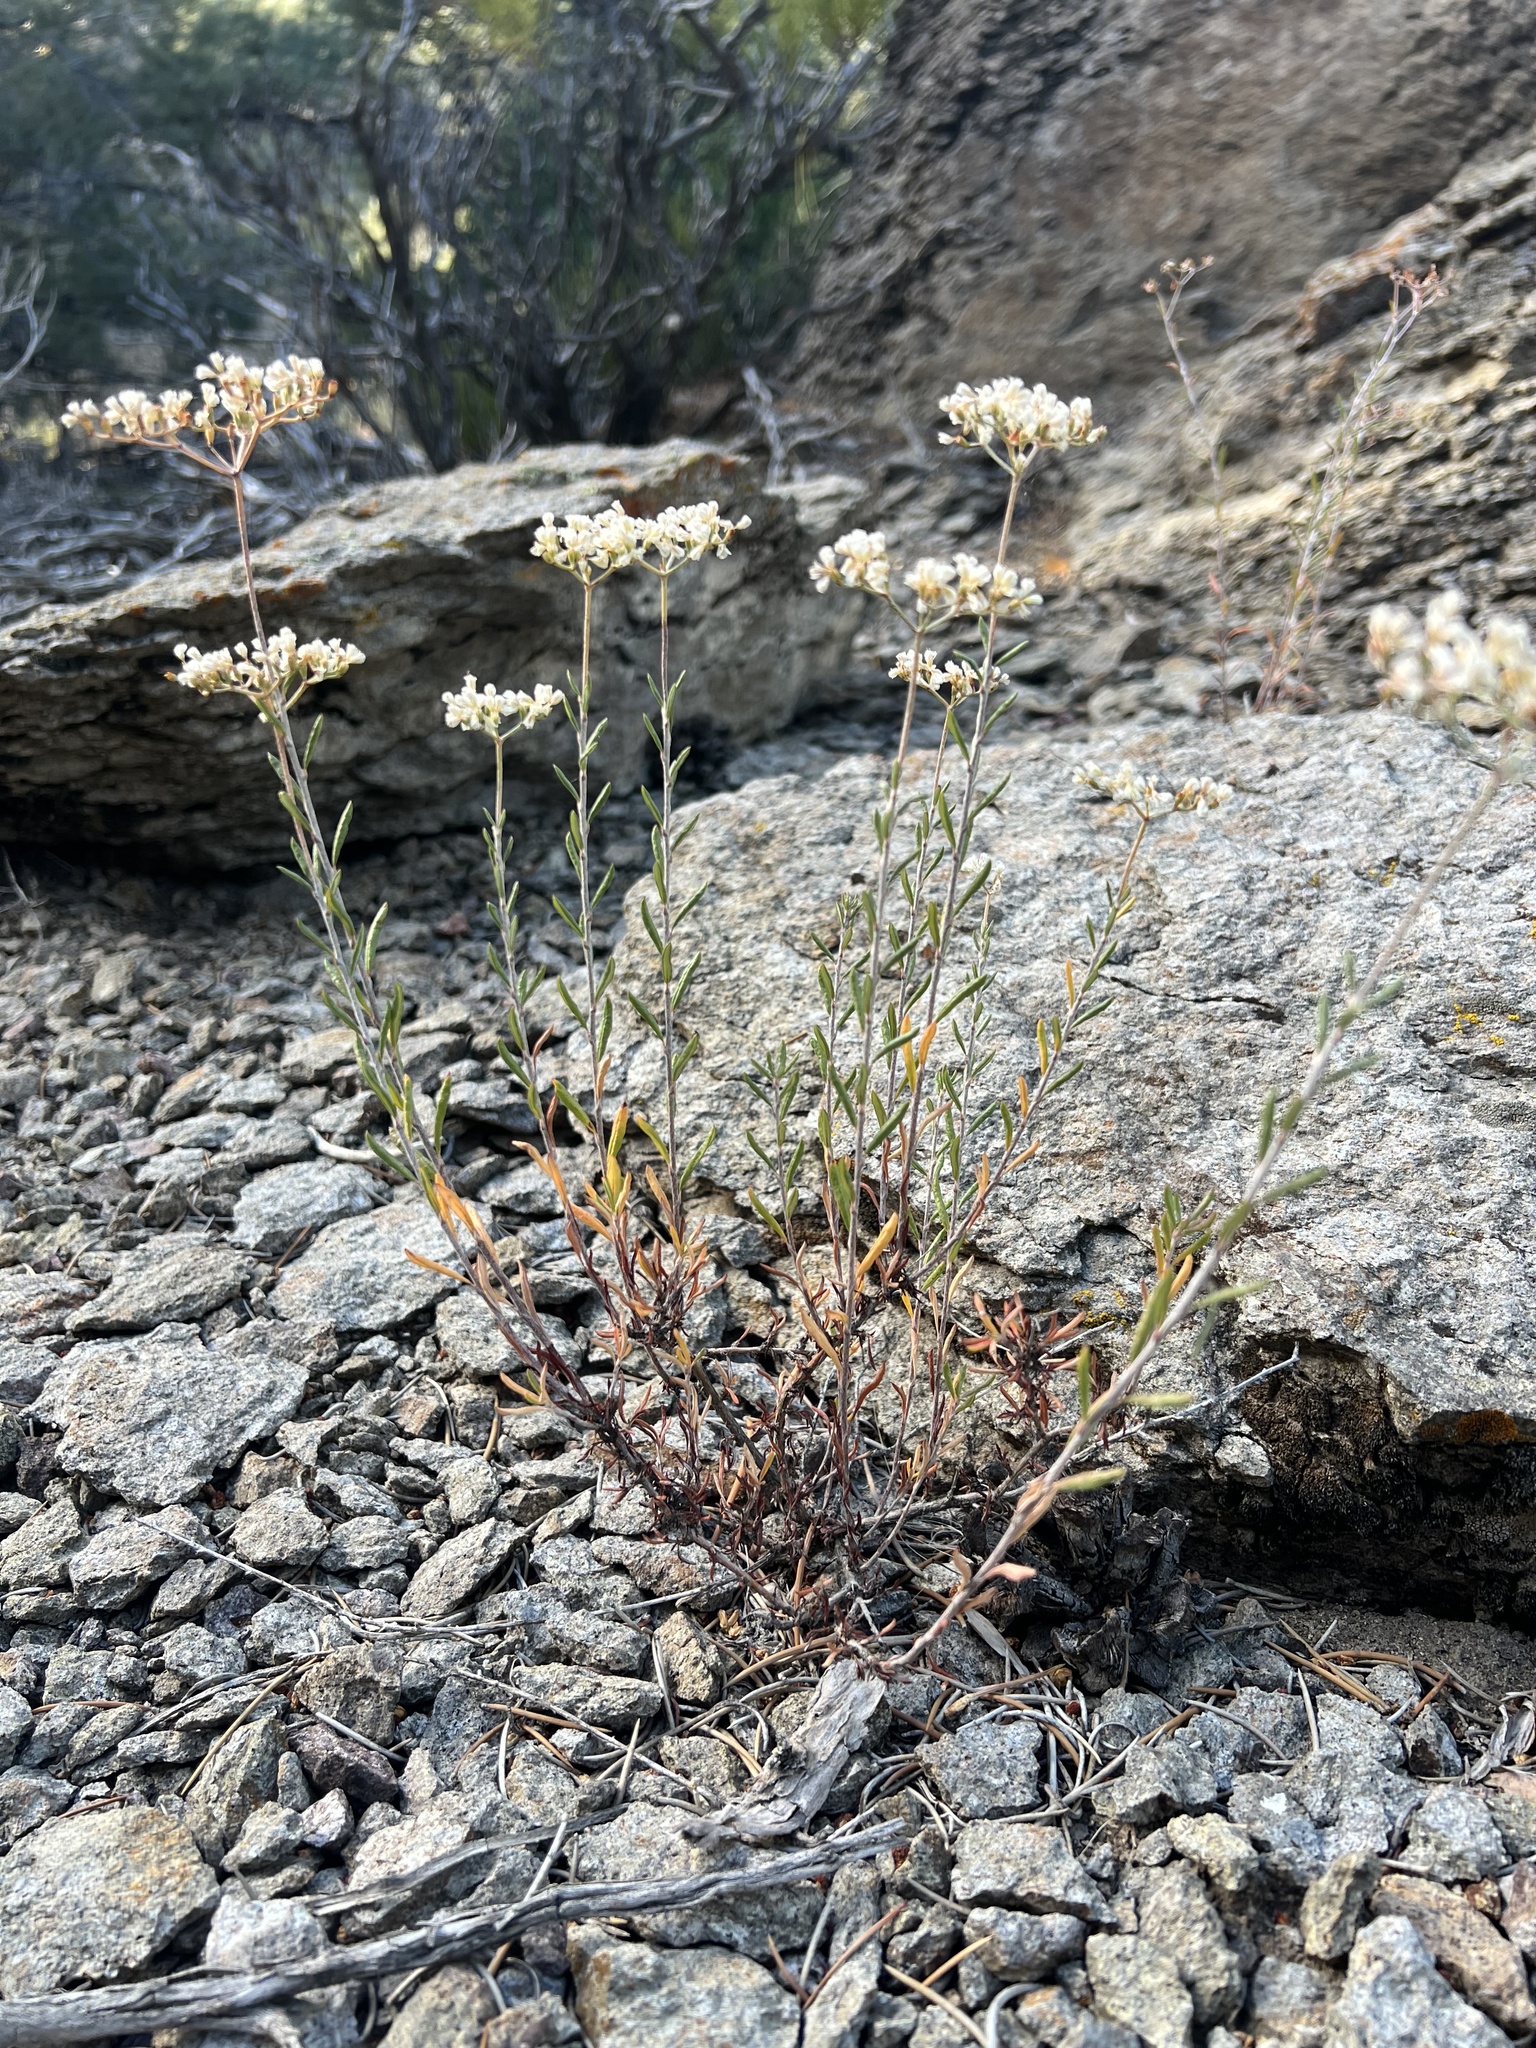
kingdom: Plantae
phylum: Tracheophyta
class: Magnoliopsida
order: Caryophyllales
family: Polygonaceae
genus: Eriogonum
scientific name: Eriogonum microtheca
